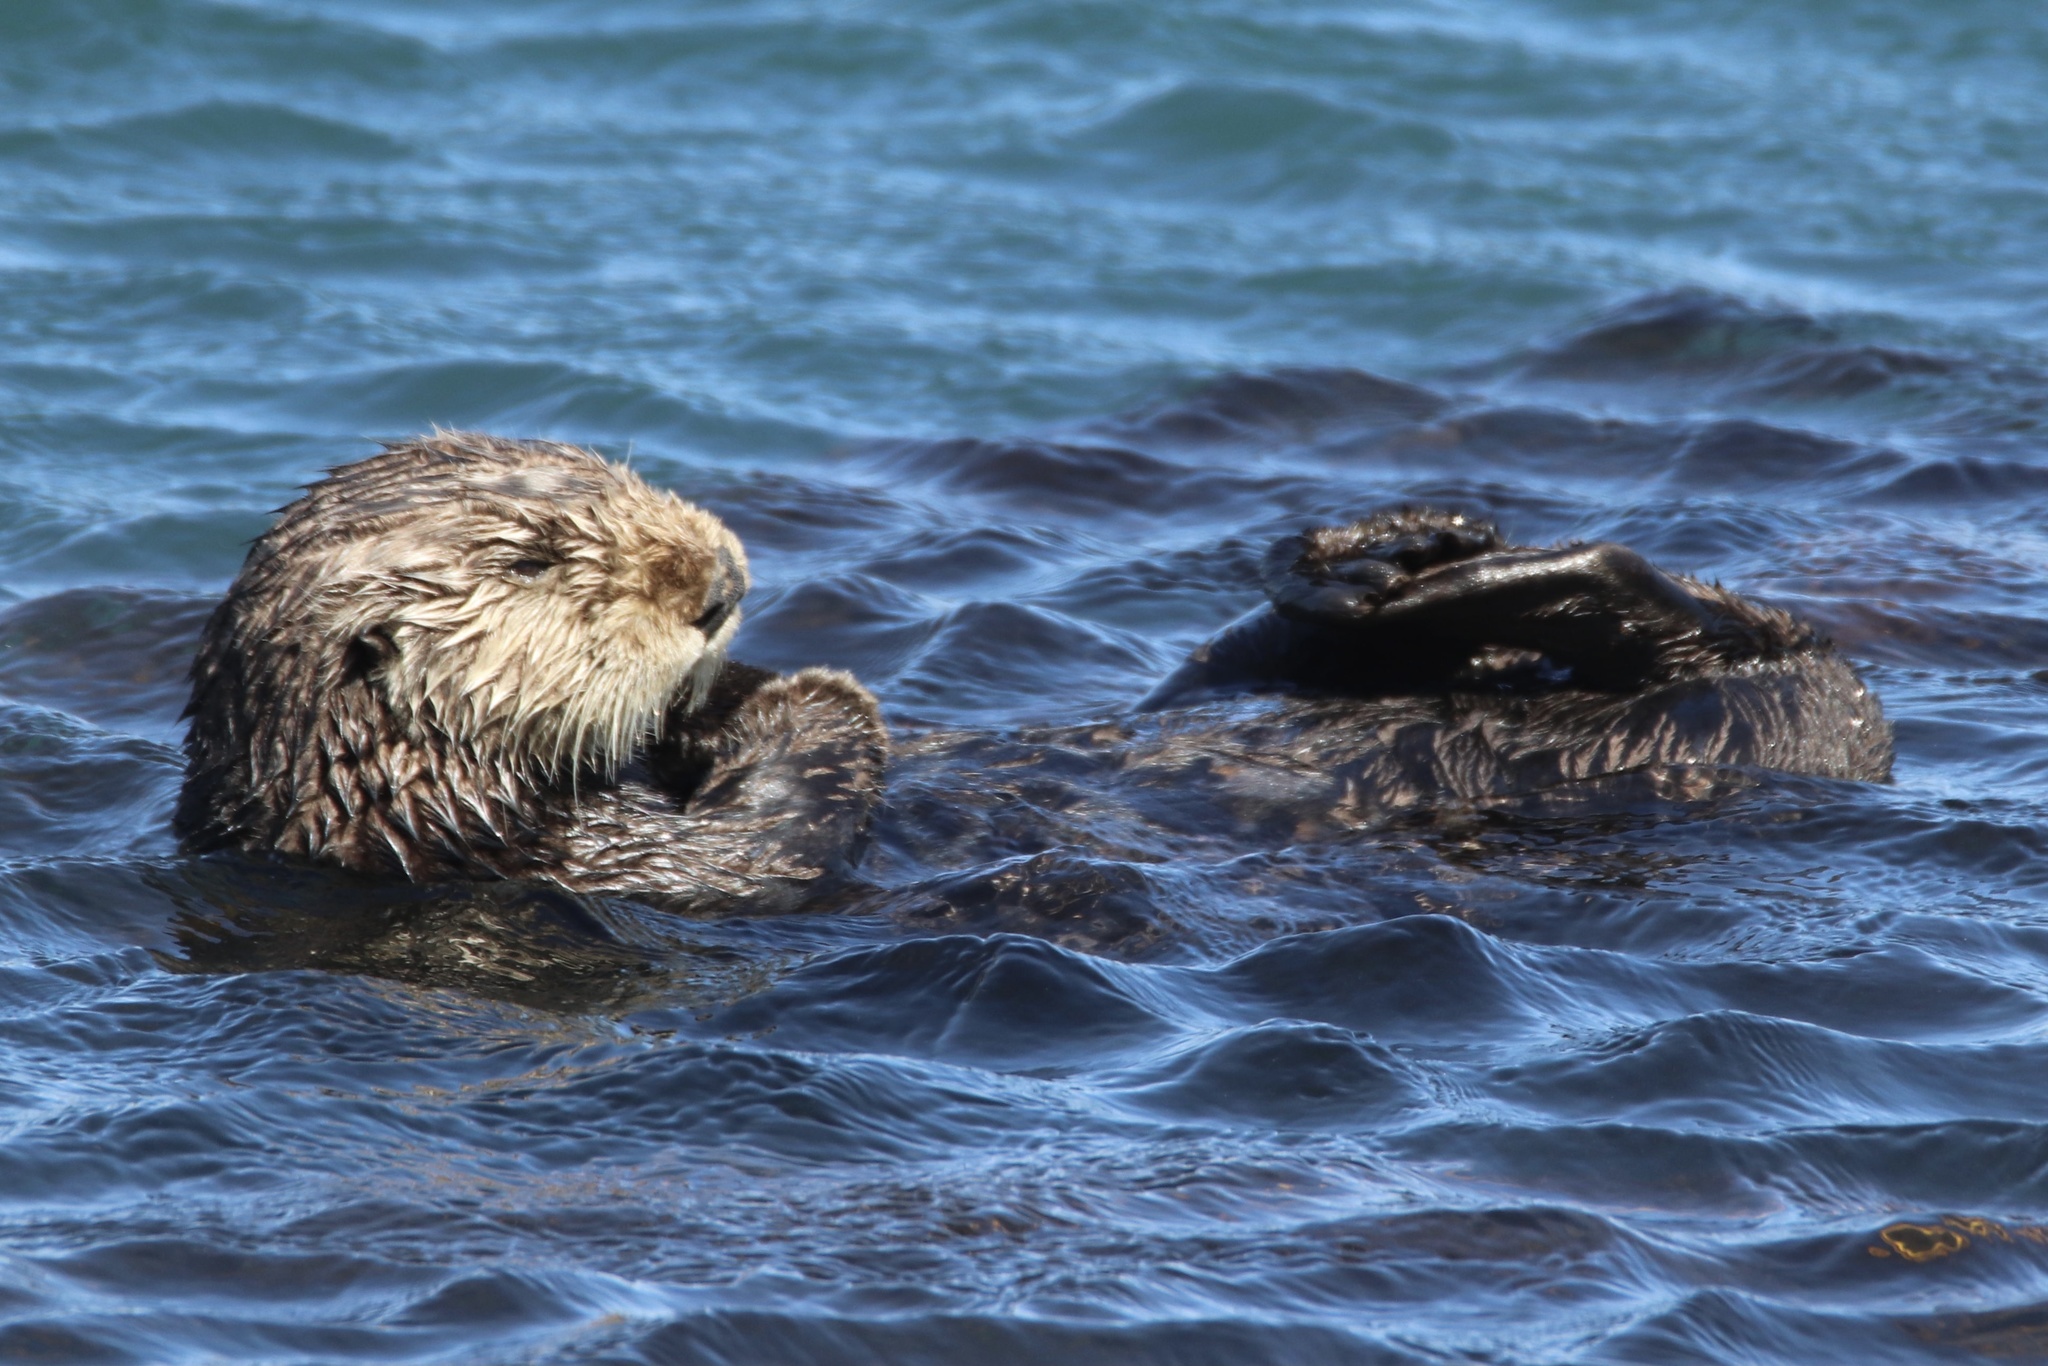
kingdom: Animalia
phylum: Chordata
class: Mammalia
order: Carnivora
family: Mustelidae
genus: Enhydra
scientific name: Enhydra lutris
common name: Sea otter
